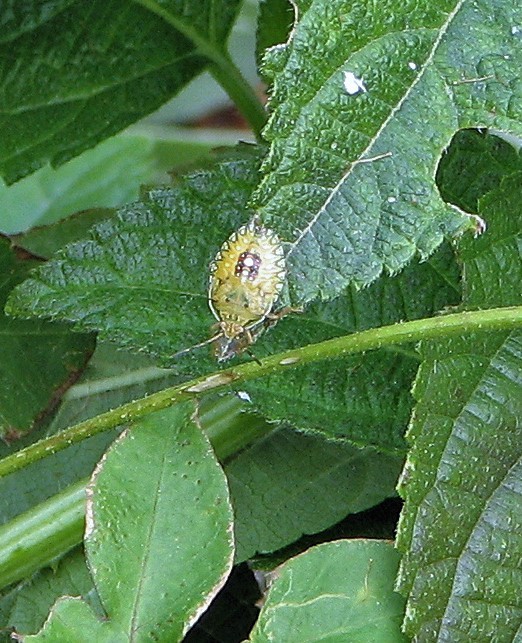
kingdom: Animalia
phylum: Arthropoda
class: Insecta
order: Hemiptera
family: Pentatomidae
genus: Edessa
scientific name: Edessa meditabunda
